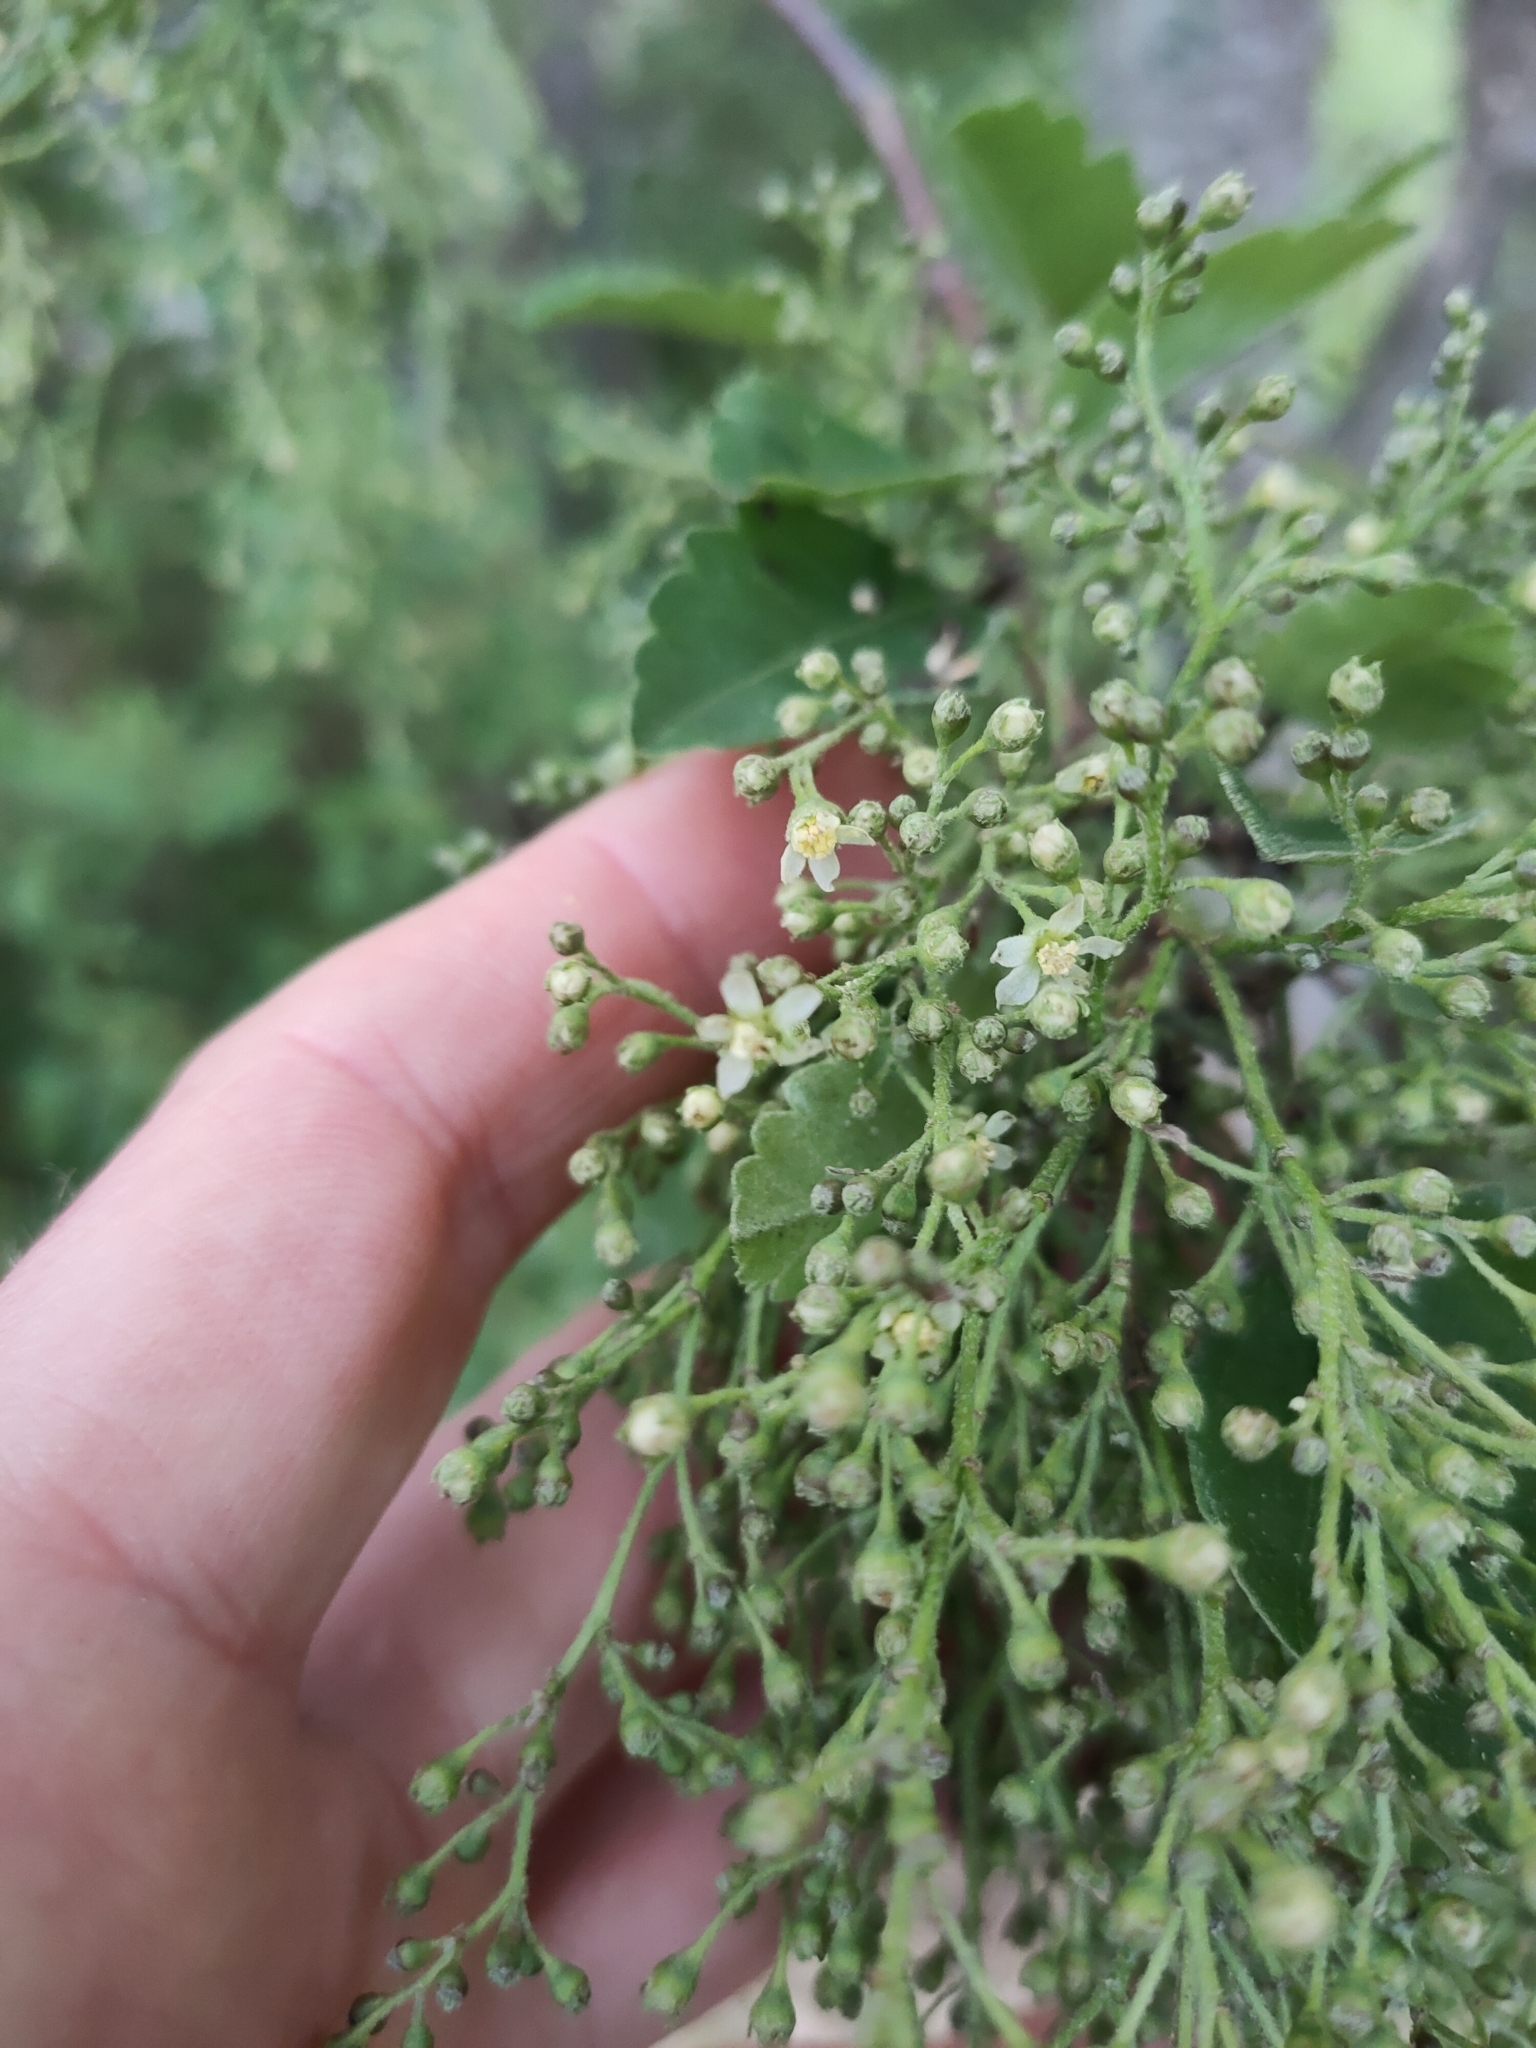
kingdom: Plantae
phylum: Tracheophyta
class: Magnoliopsida
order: Malvales
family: Malvaceae
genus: Plagianthus
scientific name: Plagianthus regius
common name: Manatu
